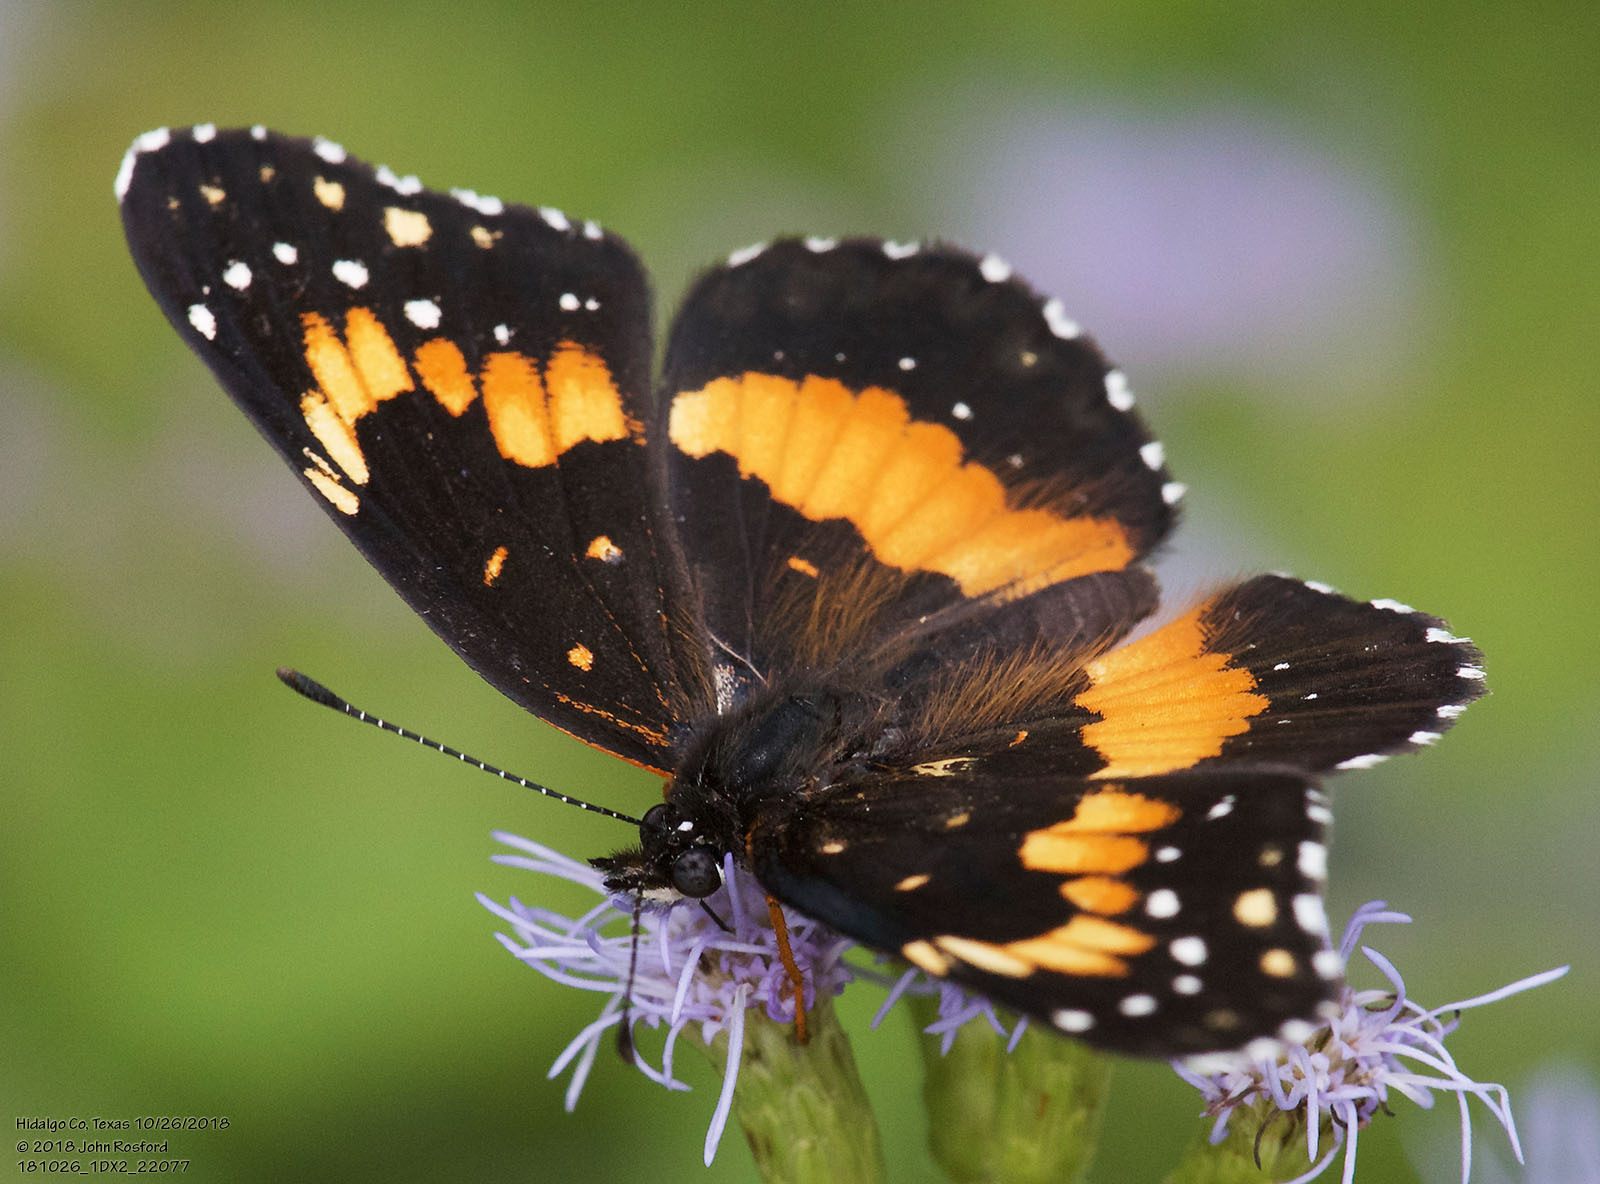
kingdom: Animalia
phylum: Arthropoda
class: Insecta
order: Lepidoptera
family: Nymphalidae
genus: Chlosyne
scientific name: Chlosyne lacinia
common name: Bordered patch
